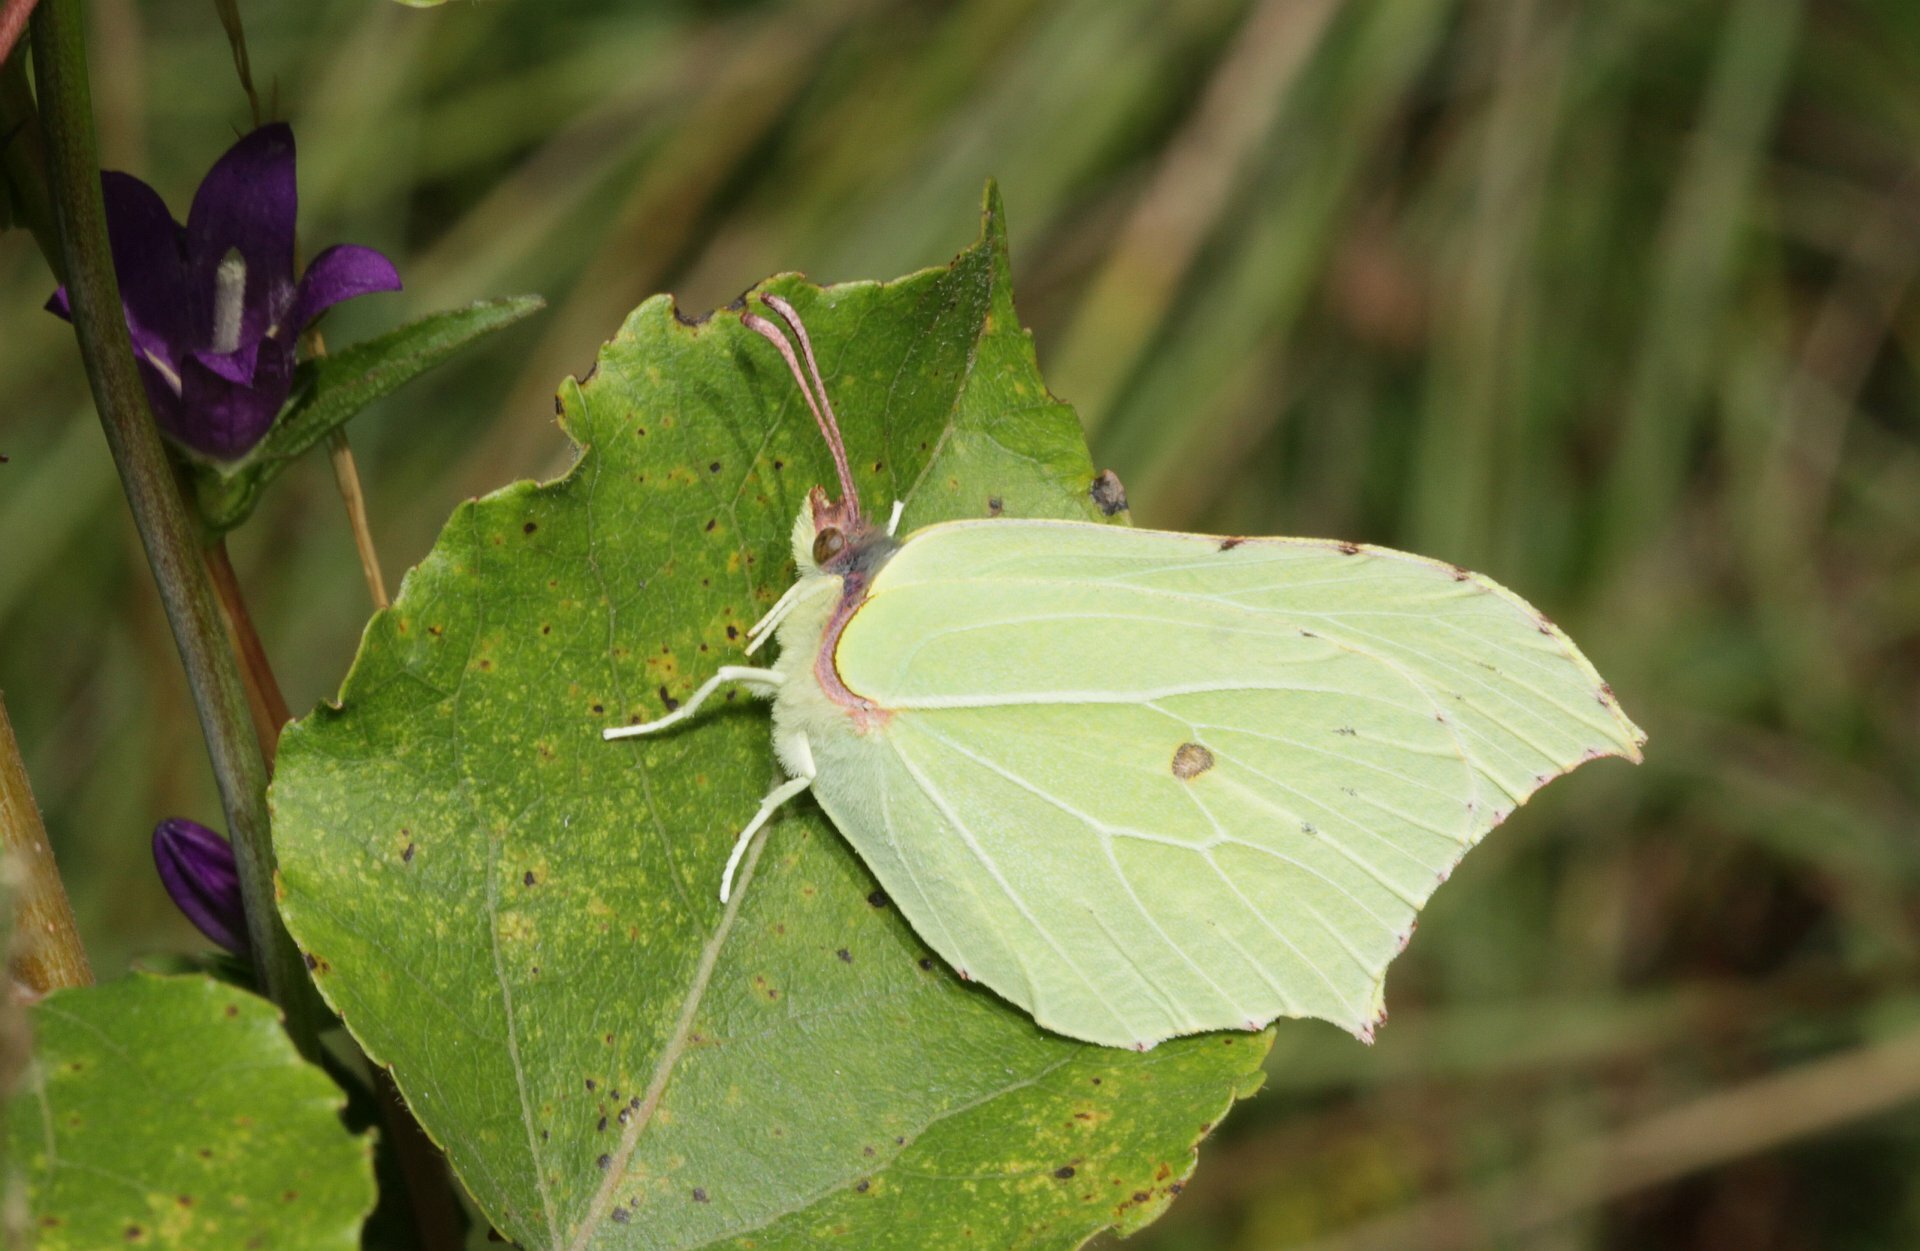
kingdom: Animalia
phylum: Arthropoda
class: Insecta
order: Lepidoptera
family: Pieridae
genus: Gonepteryx
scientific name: Gonepteryx rhamni
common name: Brimstone
